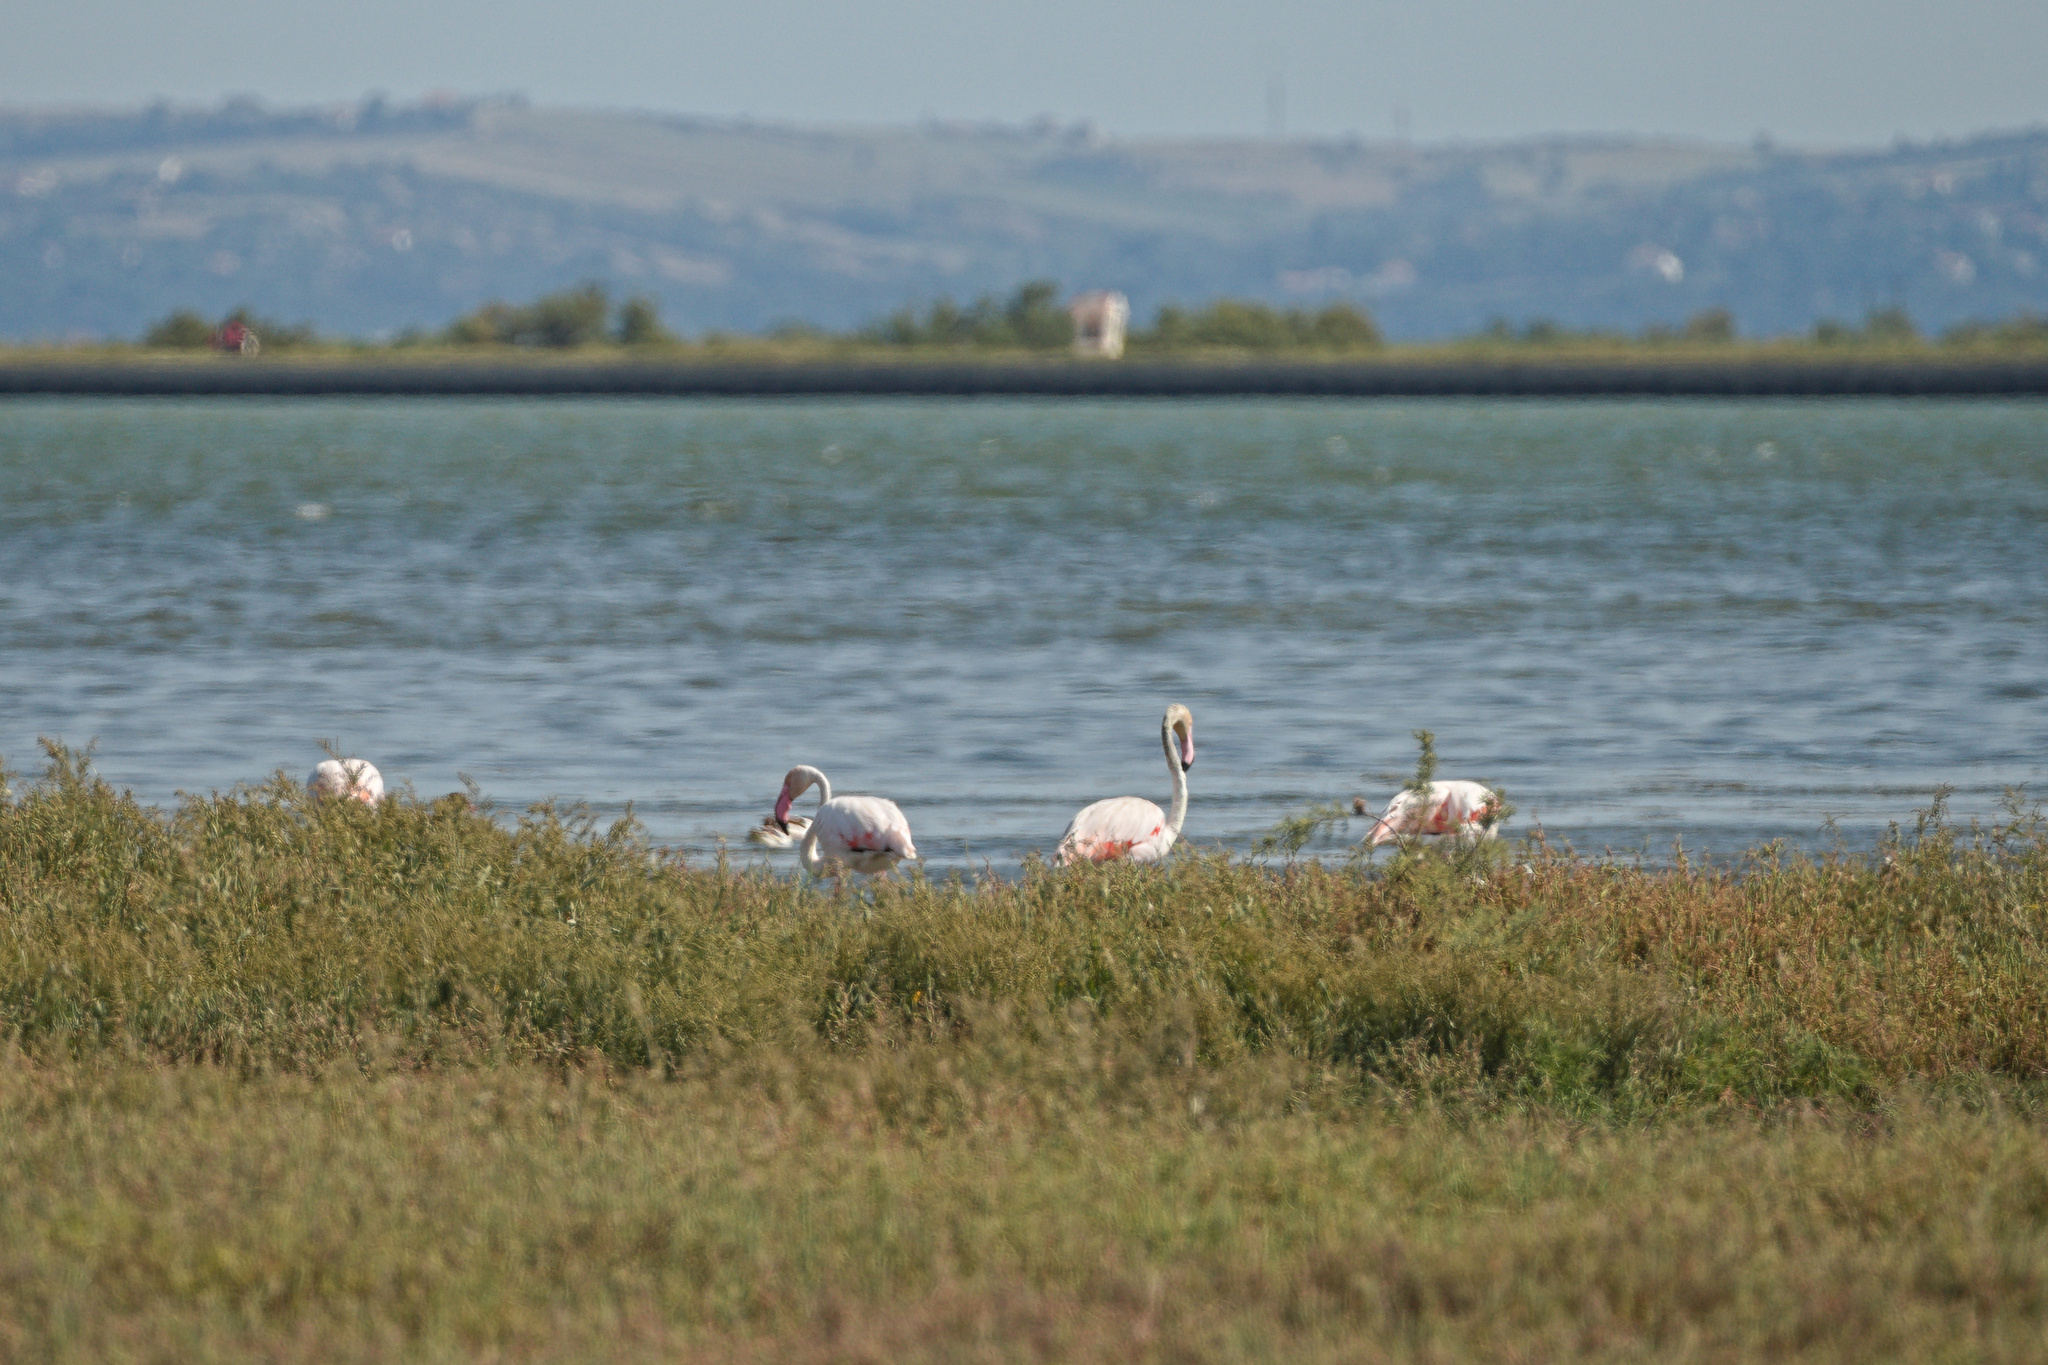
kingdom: Animalia
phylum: Chordata
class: Aves
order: Phoenicopteriformes
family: Phoenicopteridae
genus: Phoenicopterus
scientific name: Phoenicopterus roseus
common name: Greater flamingo
